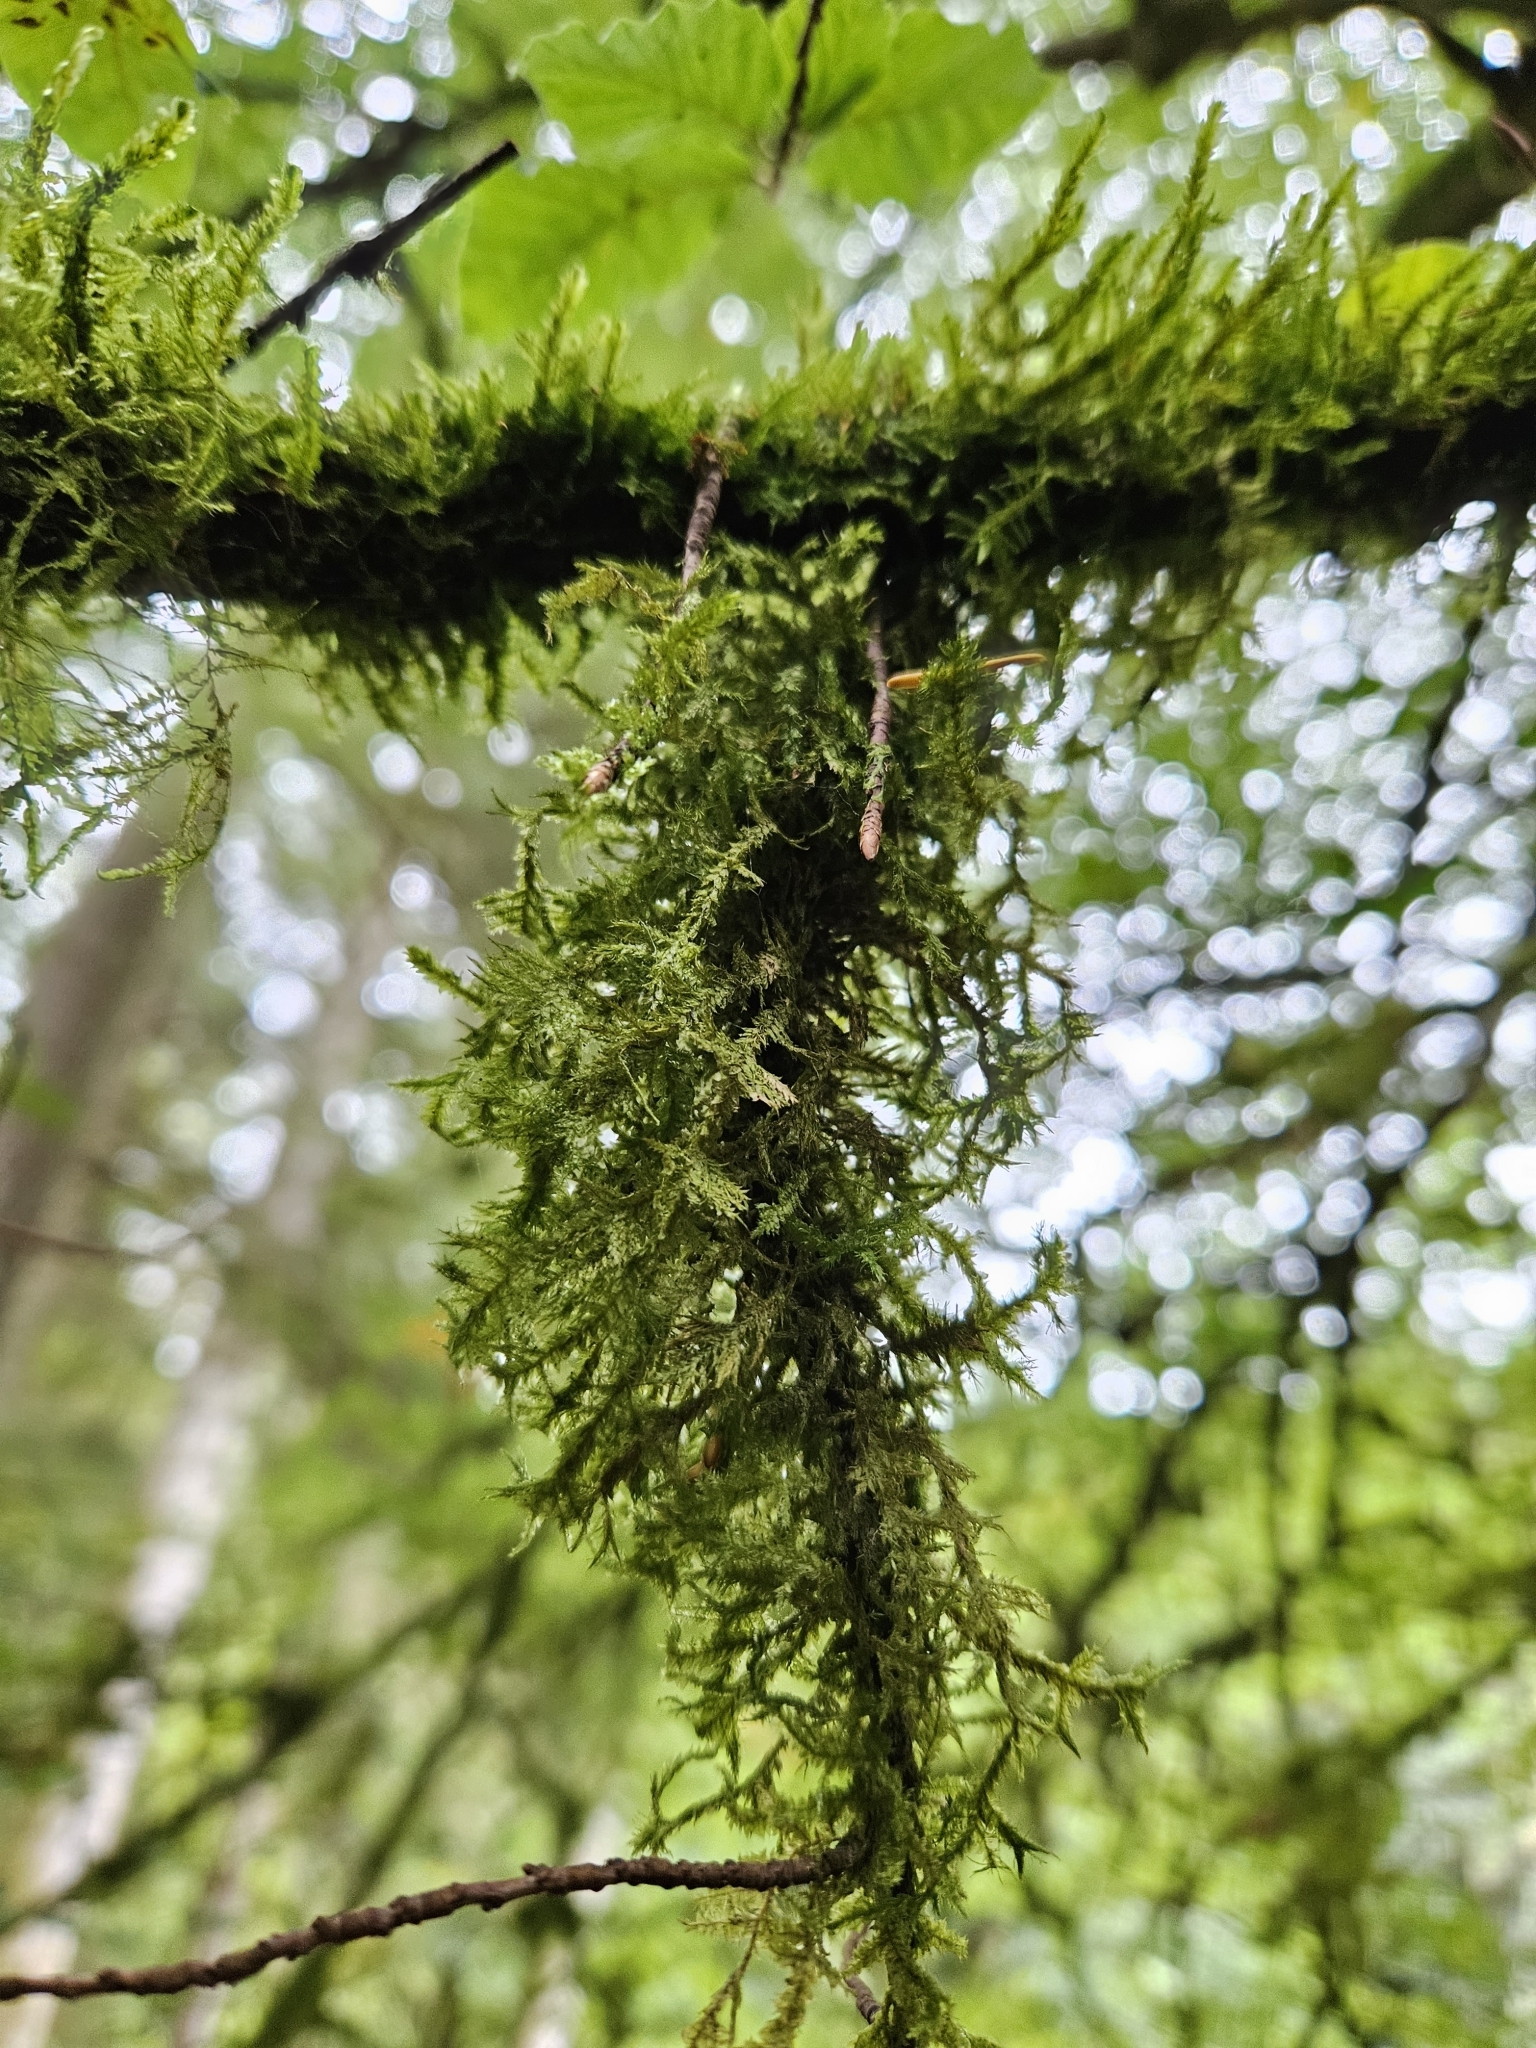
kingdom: Plantae
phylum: Bryophyta
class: Bryopsida
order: Hypnales
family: Neckeraceae
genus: Neckera
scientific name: Neckera pumila
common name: Dwarf neckera
